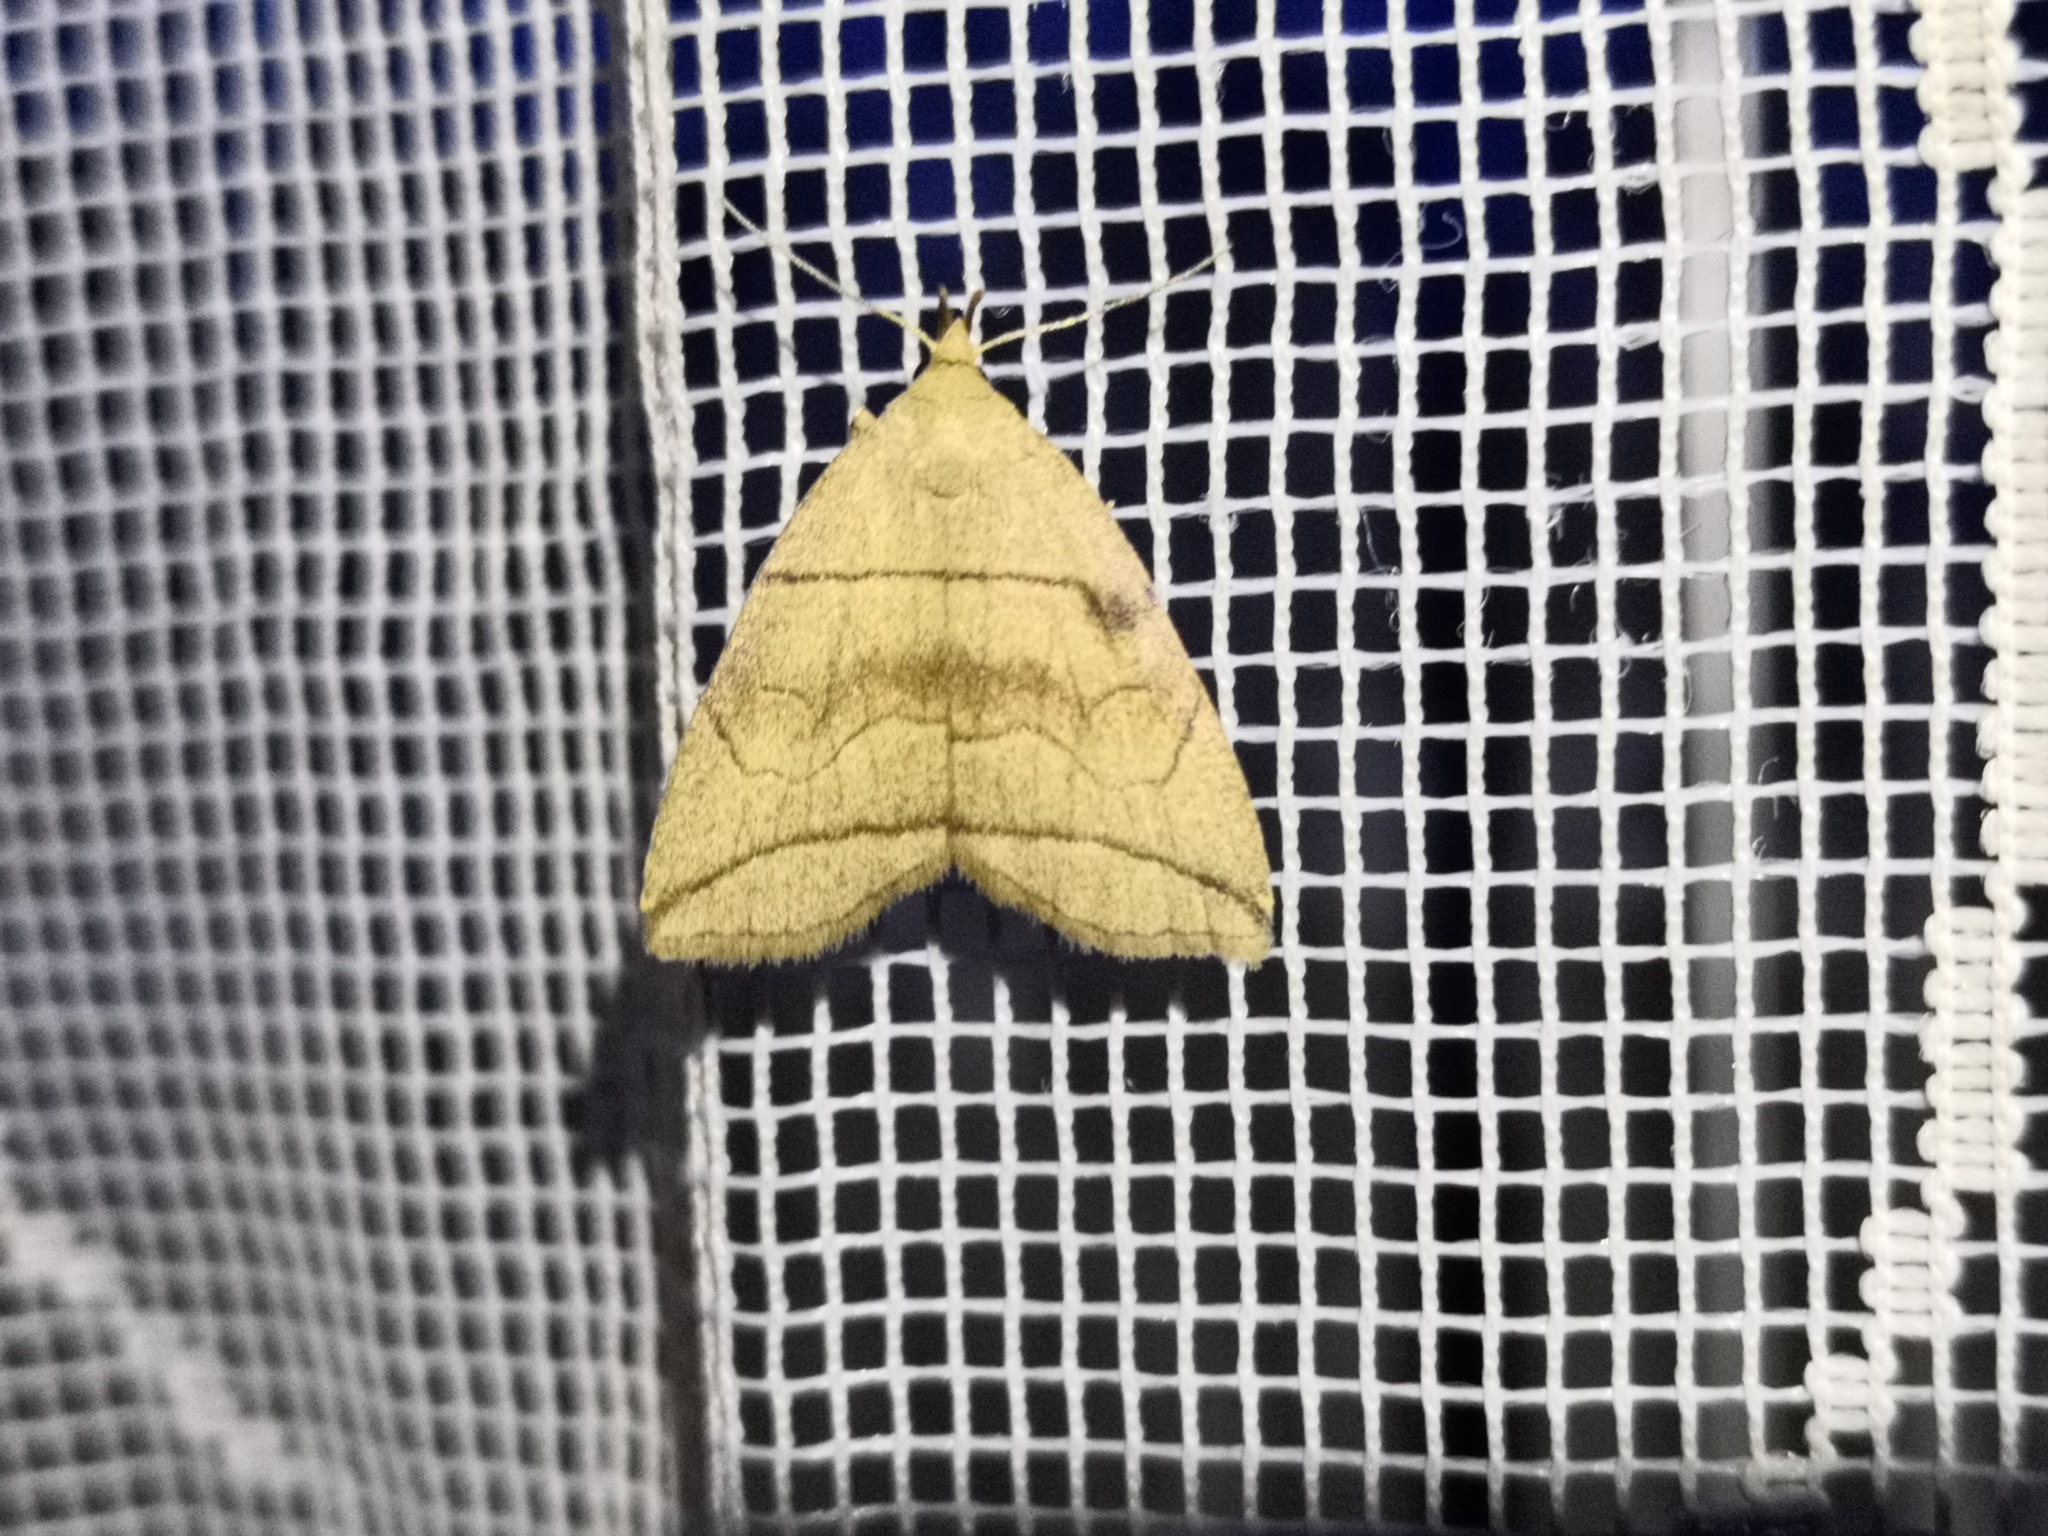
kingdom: Animalia
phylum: Arthropoda
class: Insecta
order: Lepidoptera
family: Erebidae
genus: Herminia
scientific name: Herminia grisealis
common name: Small fan-foot
